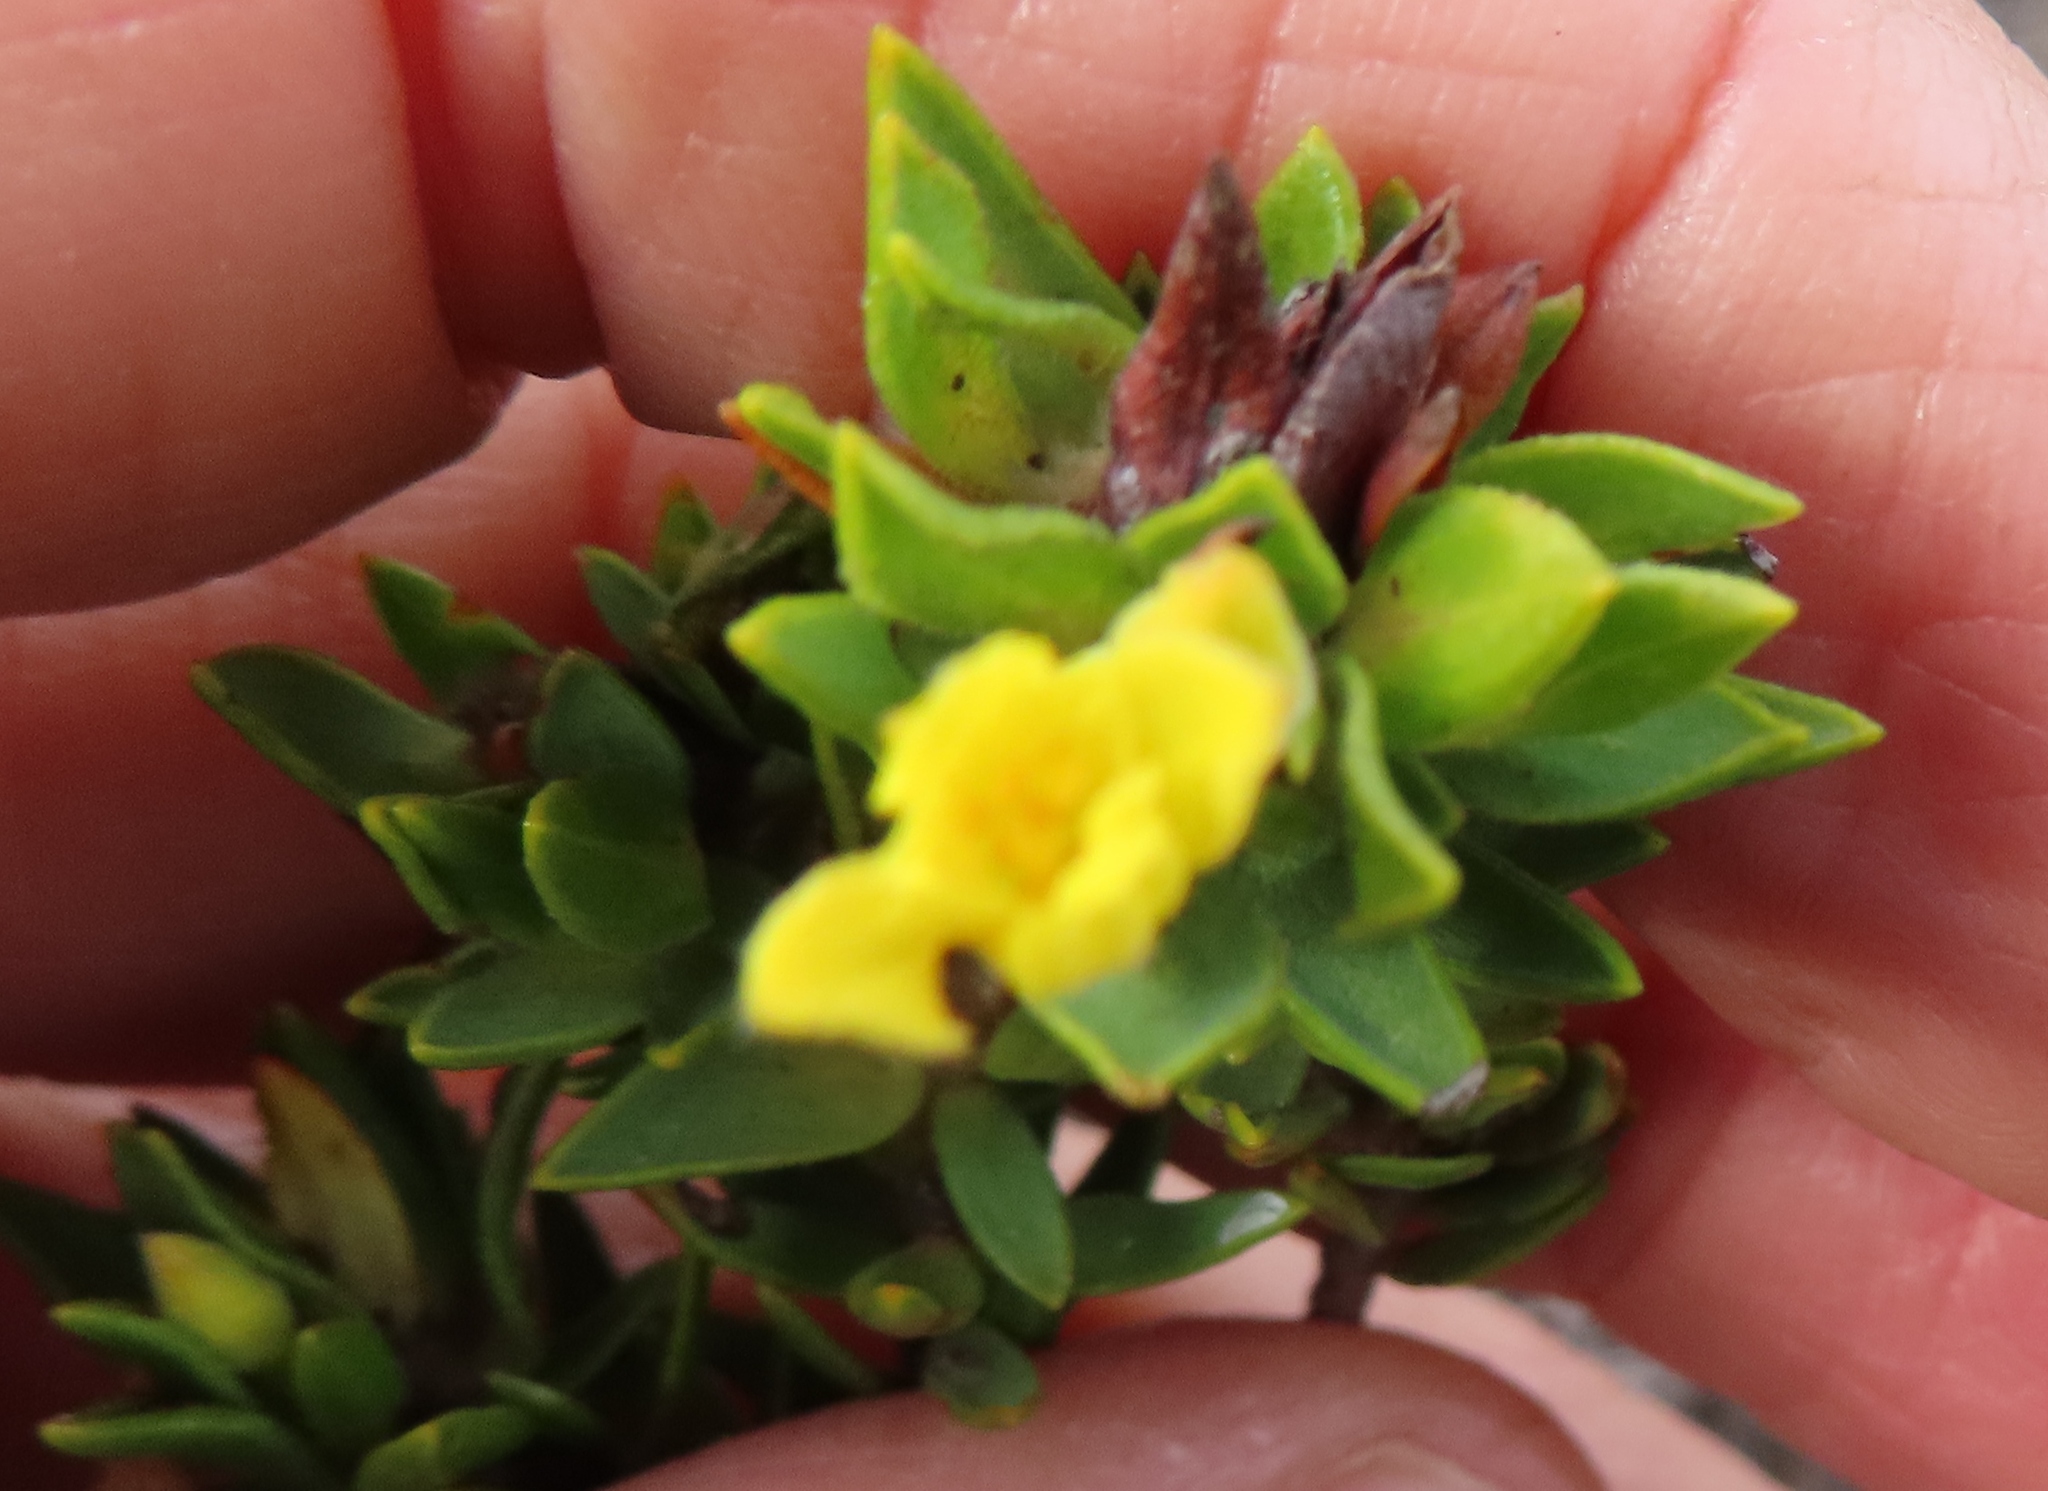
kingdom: Plantae
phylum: Tracheophyta
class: Magnoliopsida
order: Malvales
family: Thymelaeaceae
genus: Gnidia
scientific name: Gnidia juniperifolia
